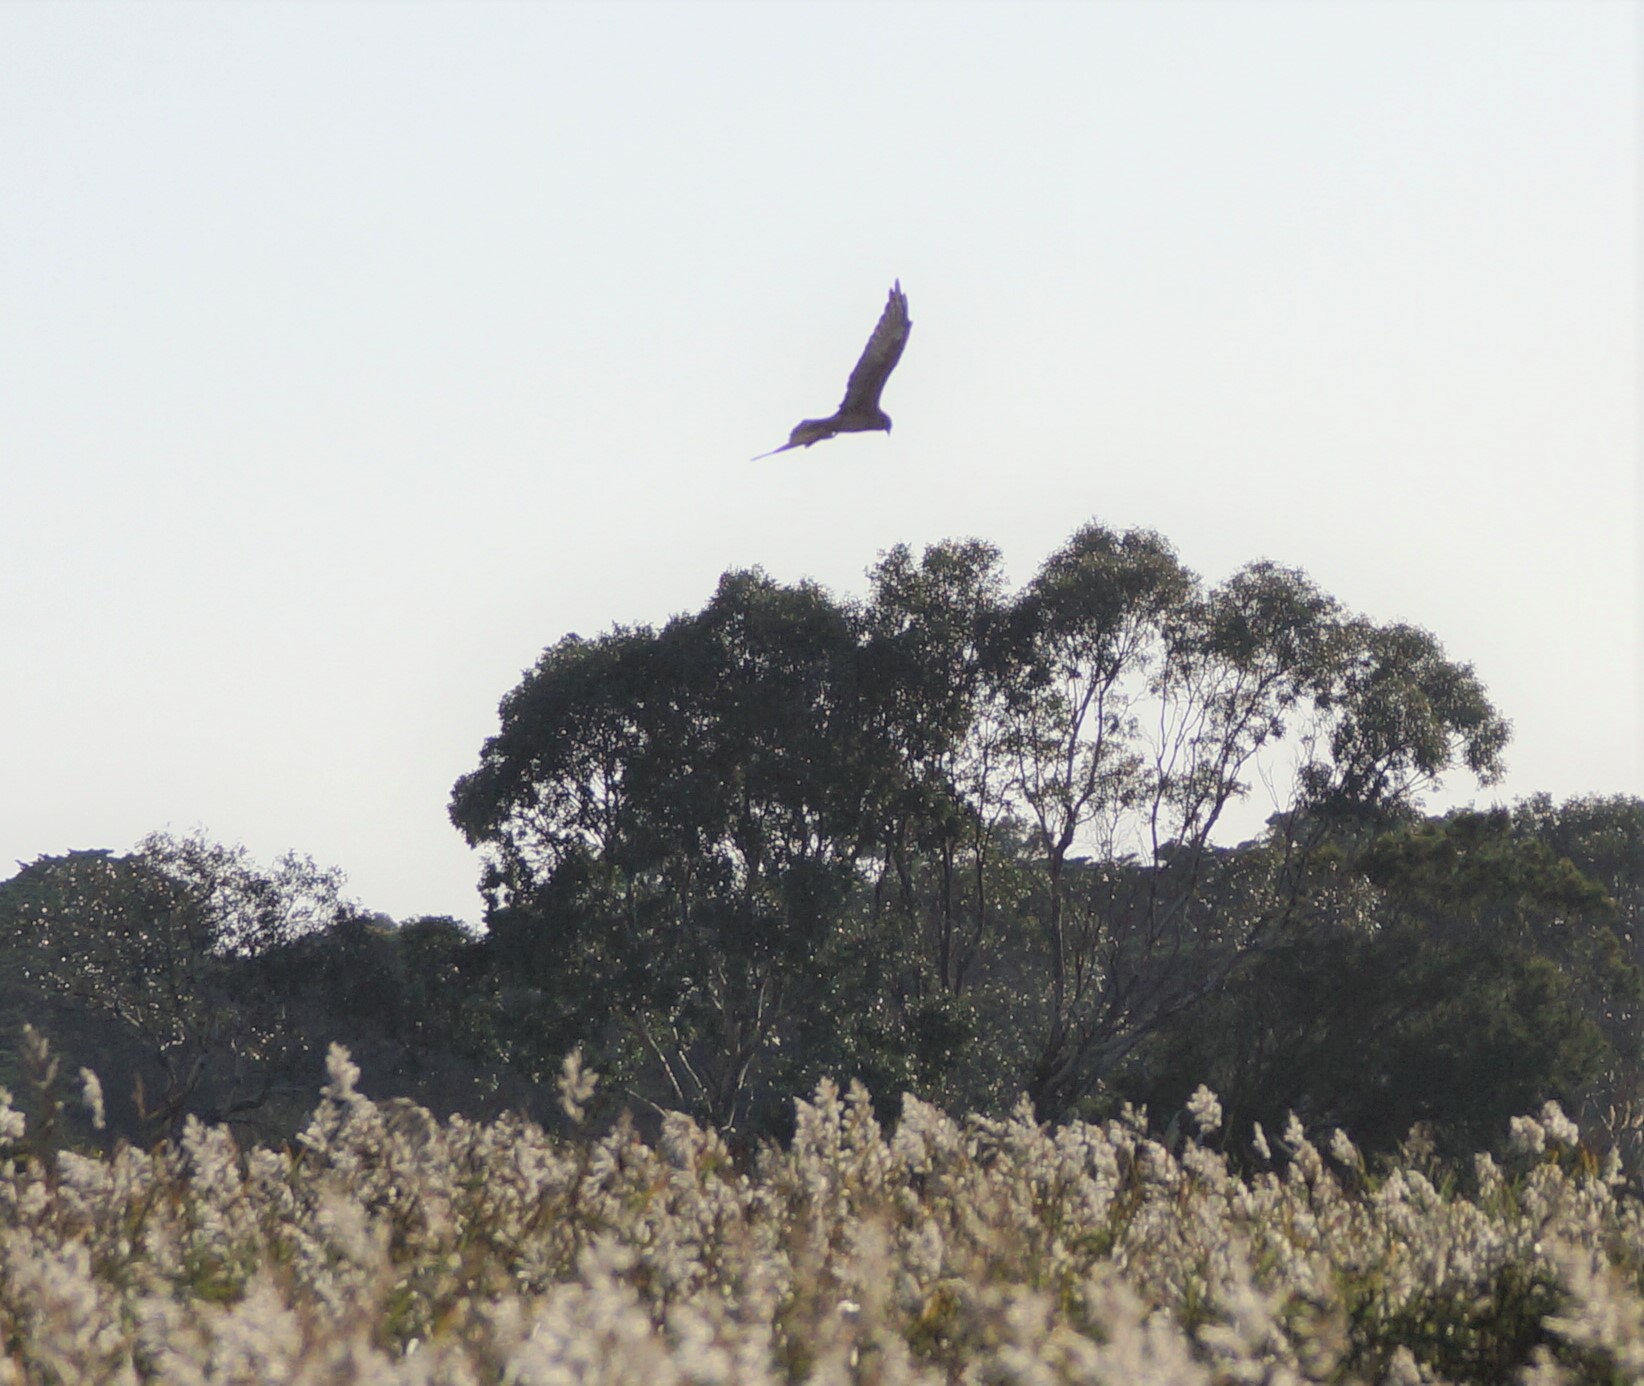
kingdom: Animalia
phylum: Chordata
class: Aves
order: Accipitriformes
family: Accipitridae
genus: Circus
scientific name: Circus approximans
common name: Swamp harrier
